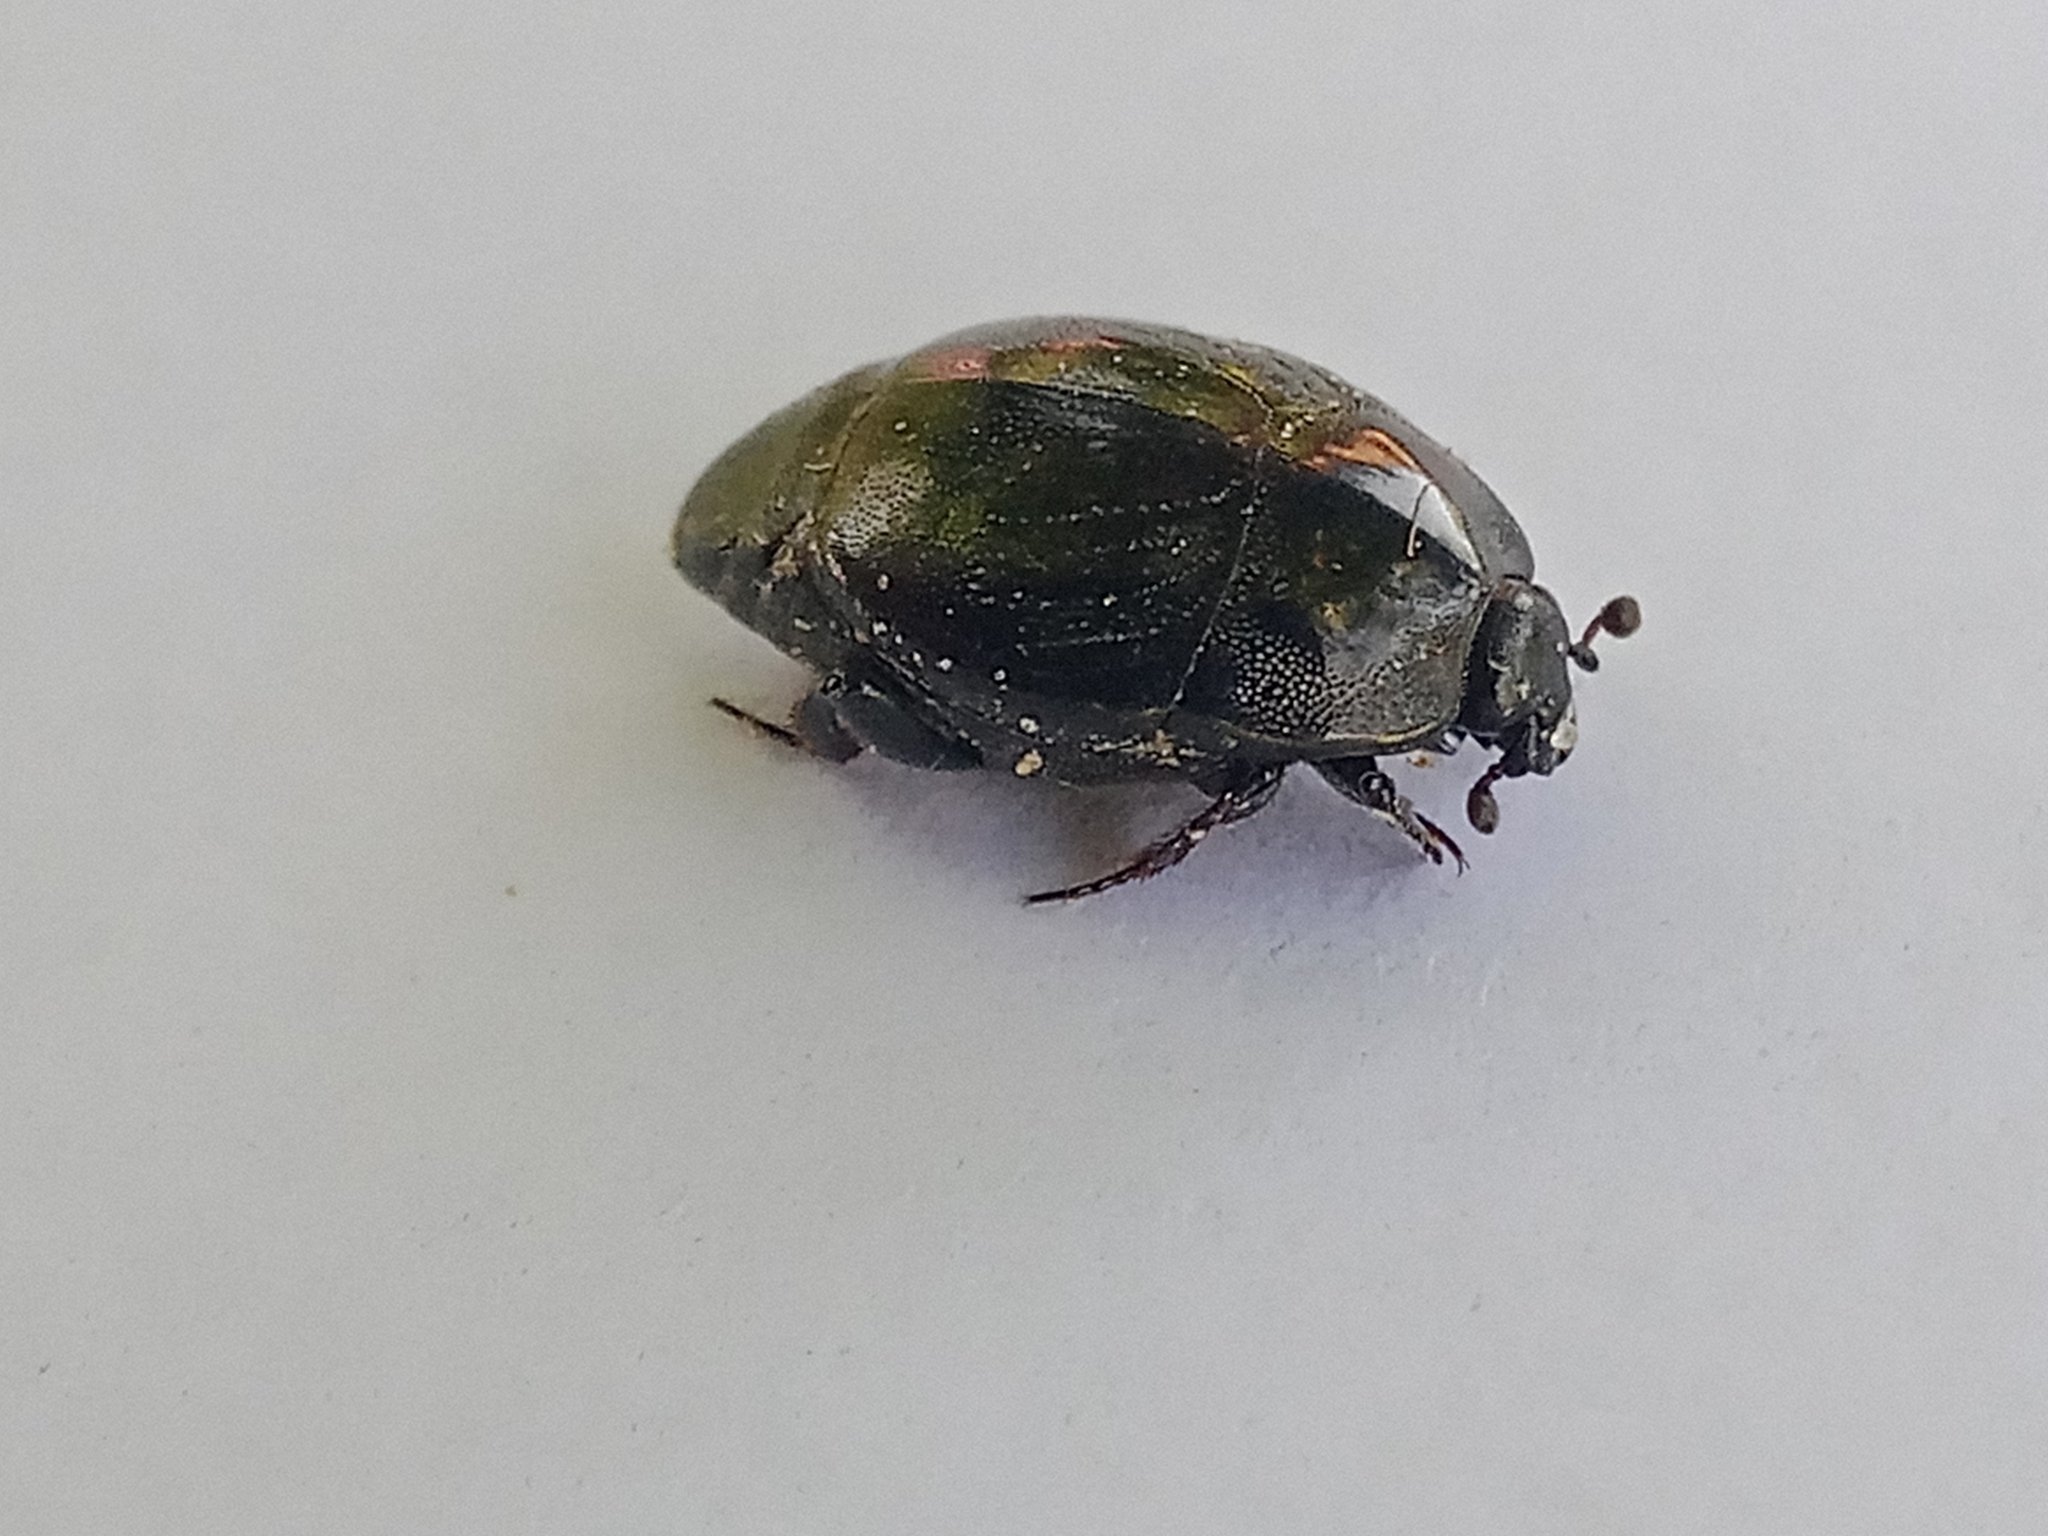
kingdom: Animalia
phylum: Arthropoda
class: Insecta
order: Coleoptera
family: Histeridae
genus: Saprinus
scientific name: Saprinus semistriatus
